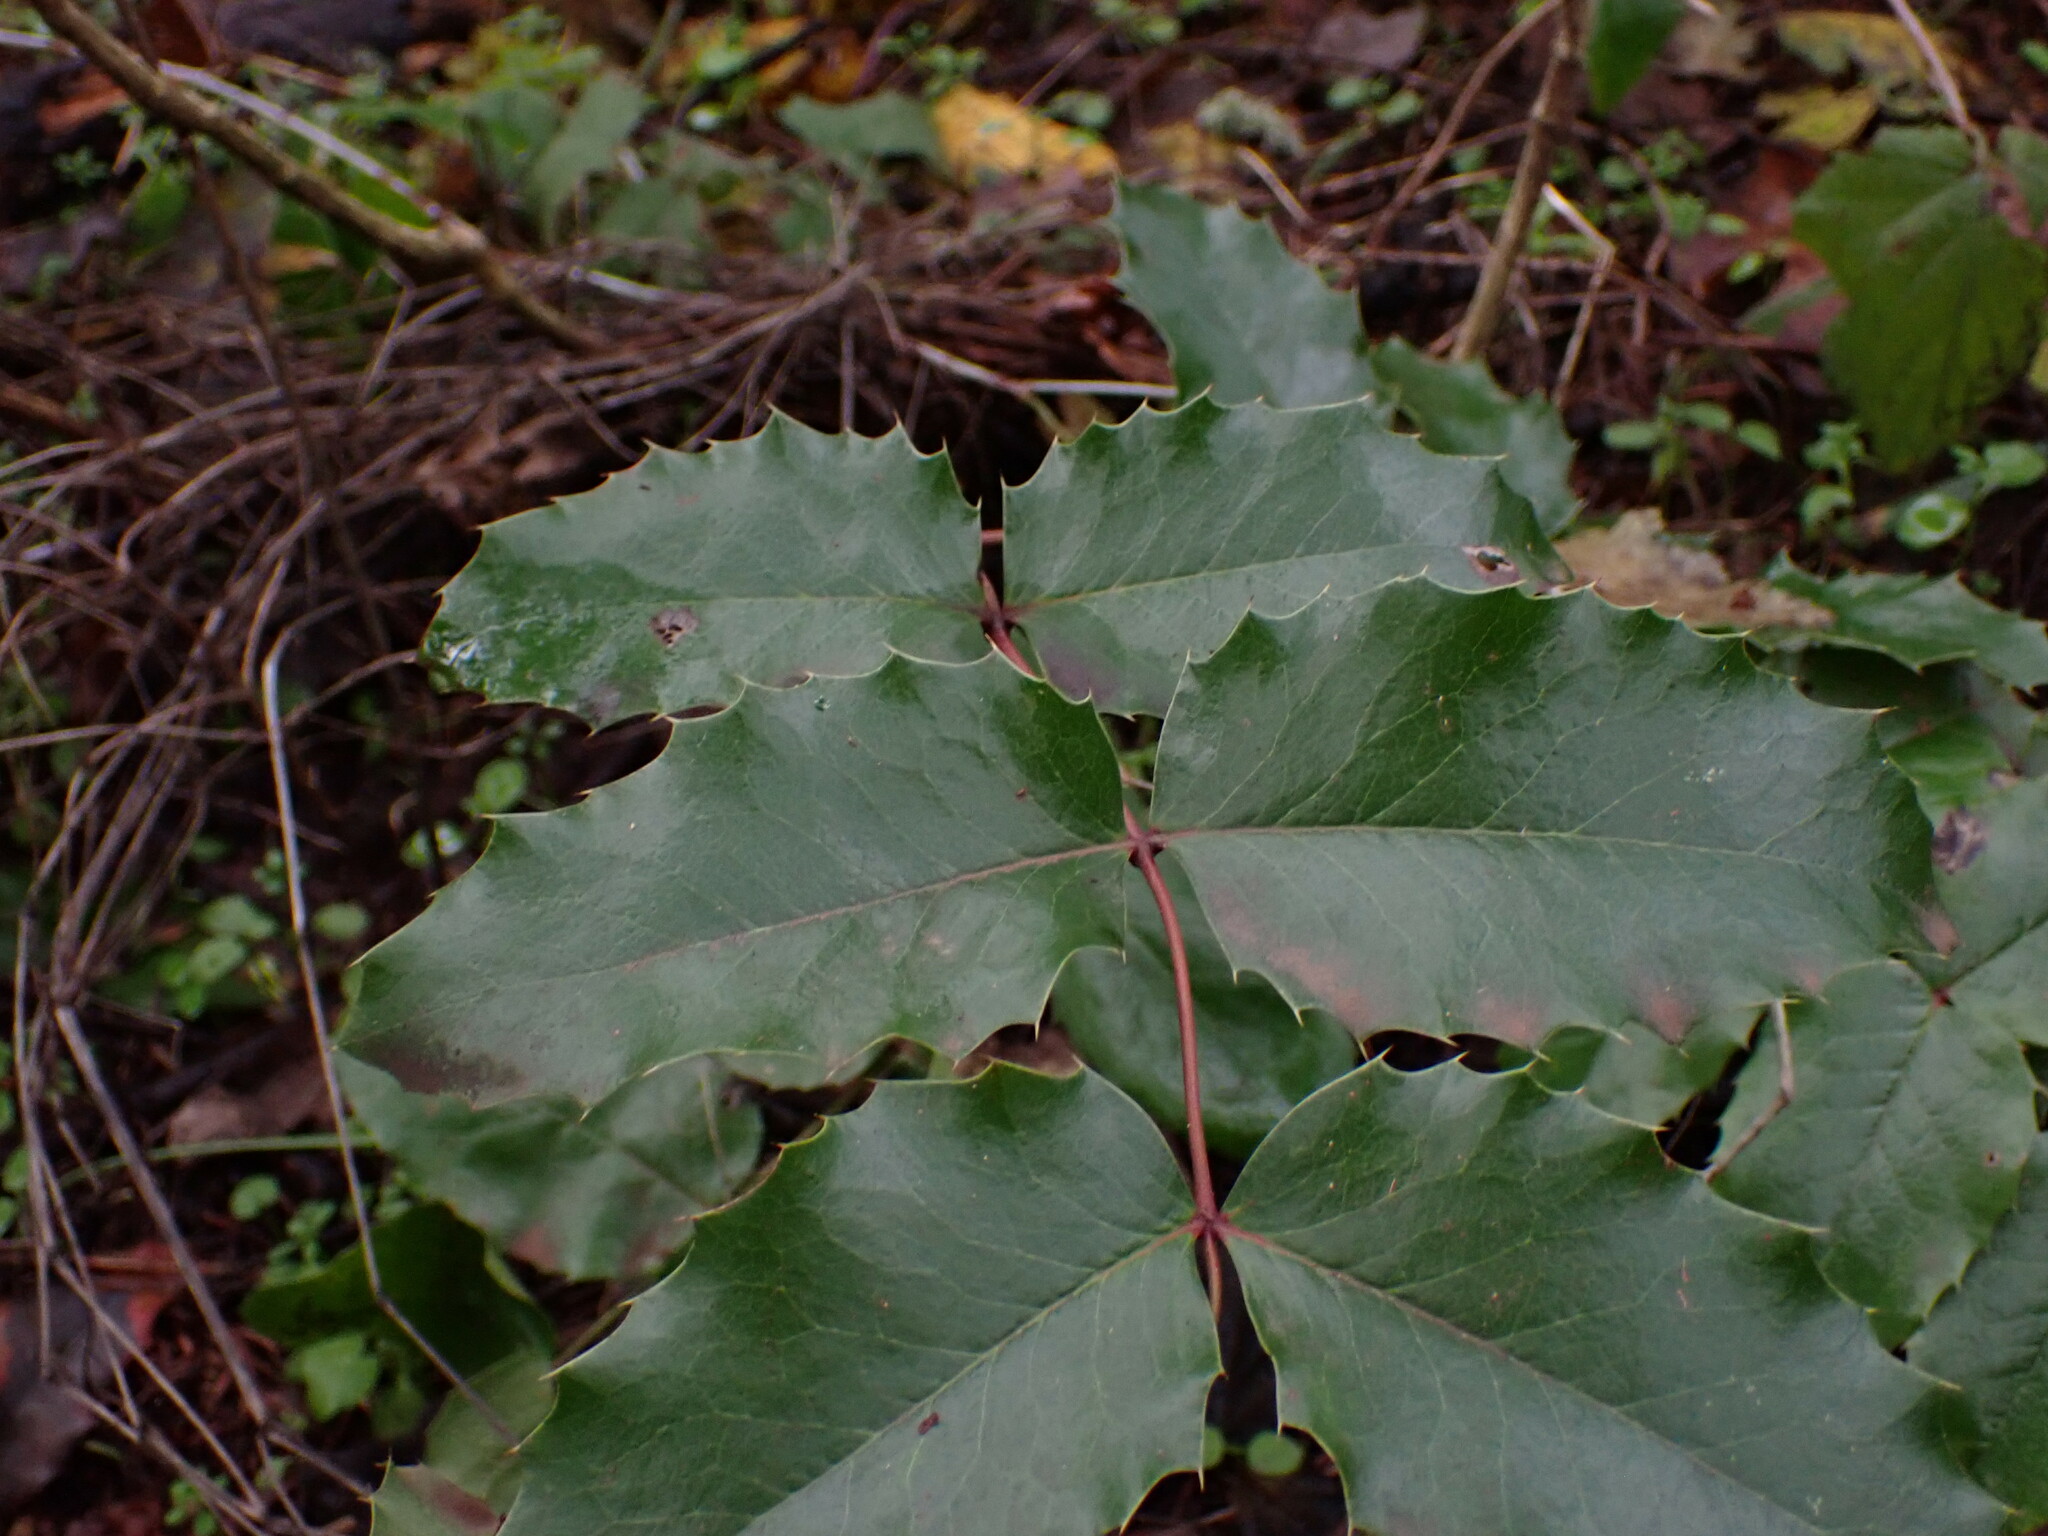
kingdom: Plantae
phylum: Tracheophyta
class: Magnoliopsida
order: Ranunculales
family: Berberidaceae
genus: Mahonia
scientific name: Mahonia aquifolium
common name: Oregon-grape
